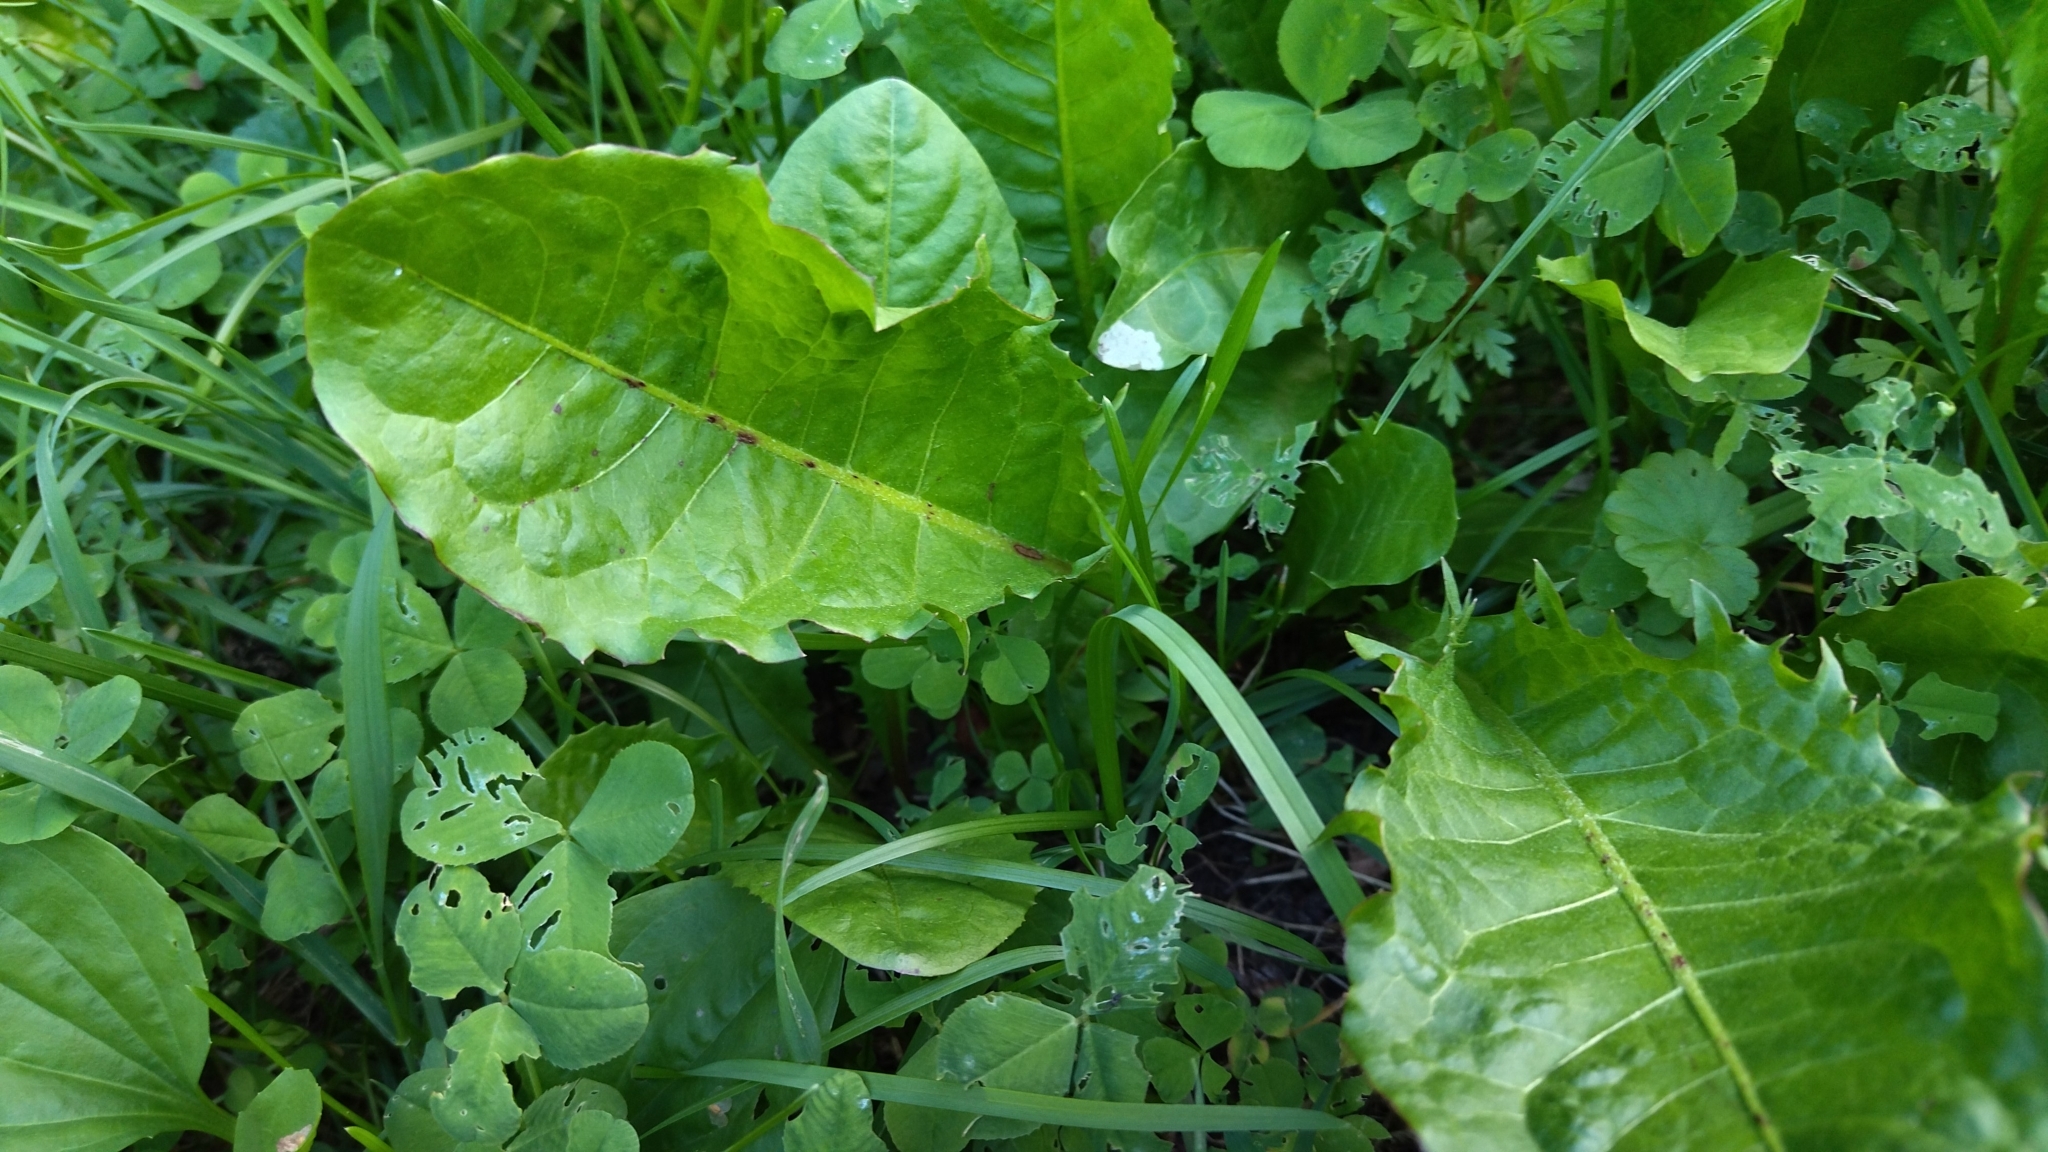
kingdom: Plantae
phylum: Tracheophyta
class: Magnoliopsida
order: Asterales
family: Asteraceae
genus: Taraxacum
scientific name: Taraxacum officinale
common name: Common dandelion
